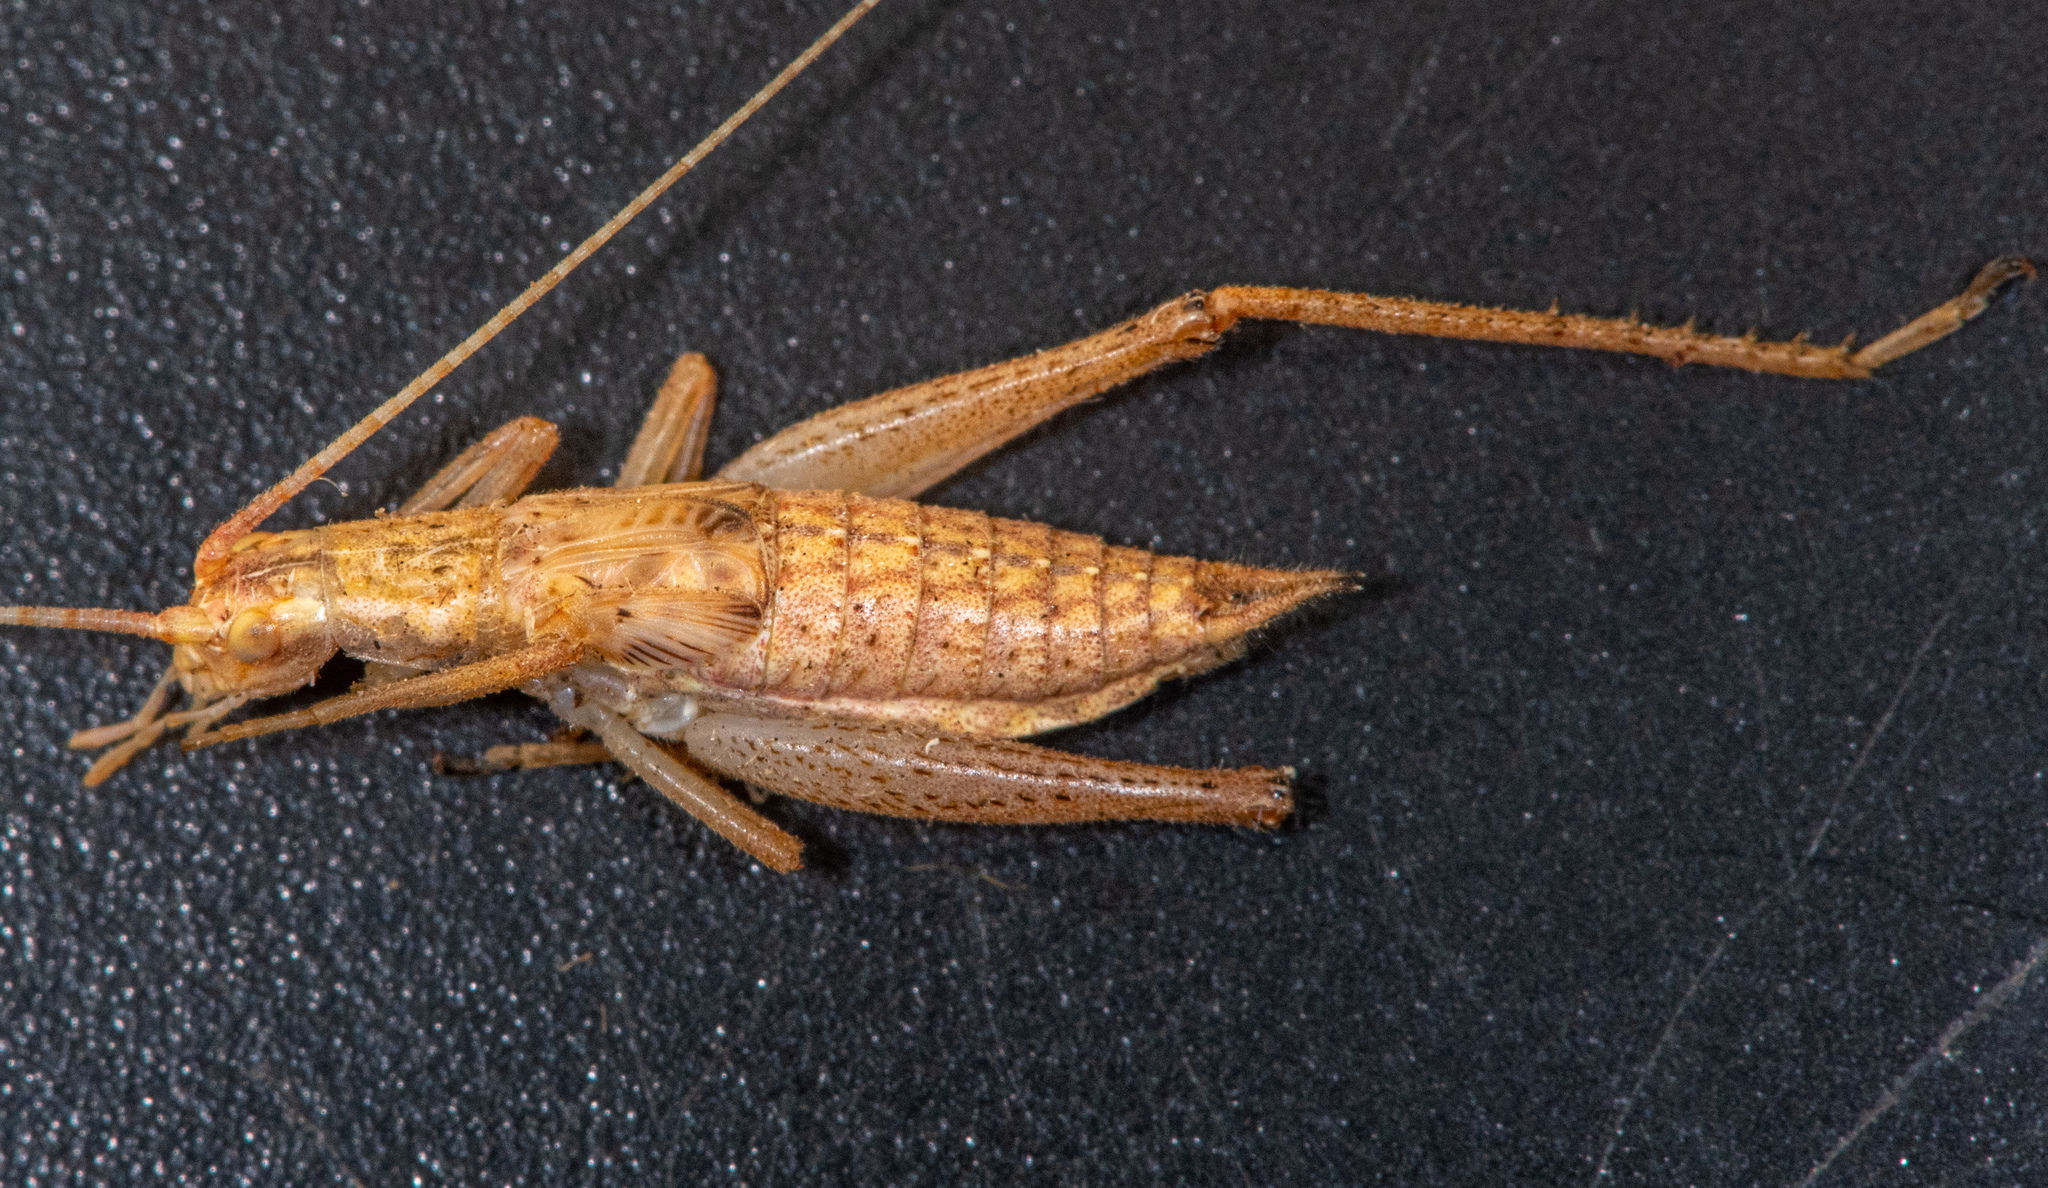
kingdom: Animalia
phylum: Arthropoda
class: Insecta
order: Orthoptera
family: Gryllidae
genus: Oecanthus
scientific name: Oecanthus californicus
